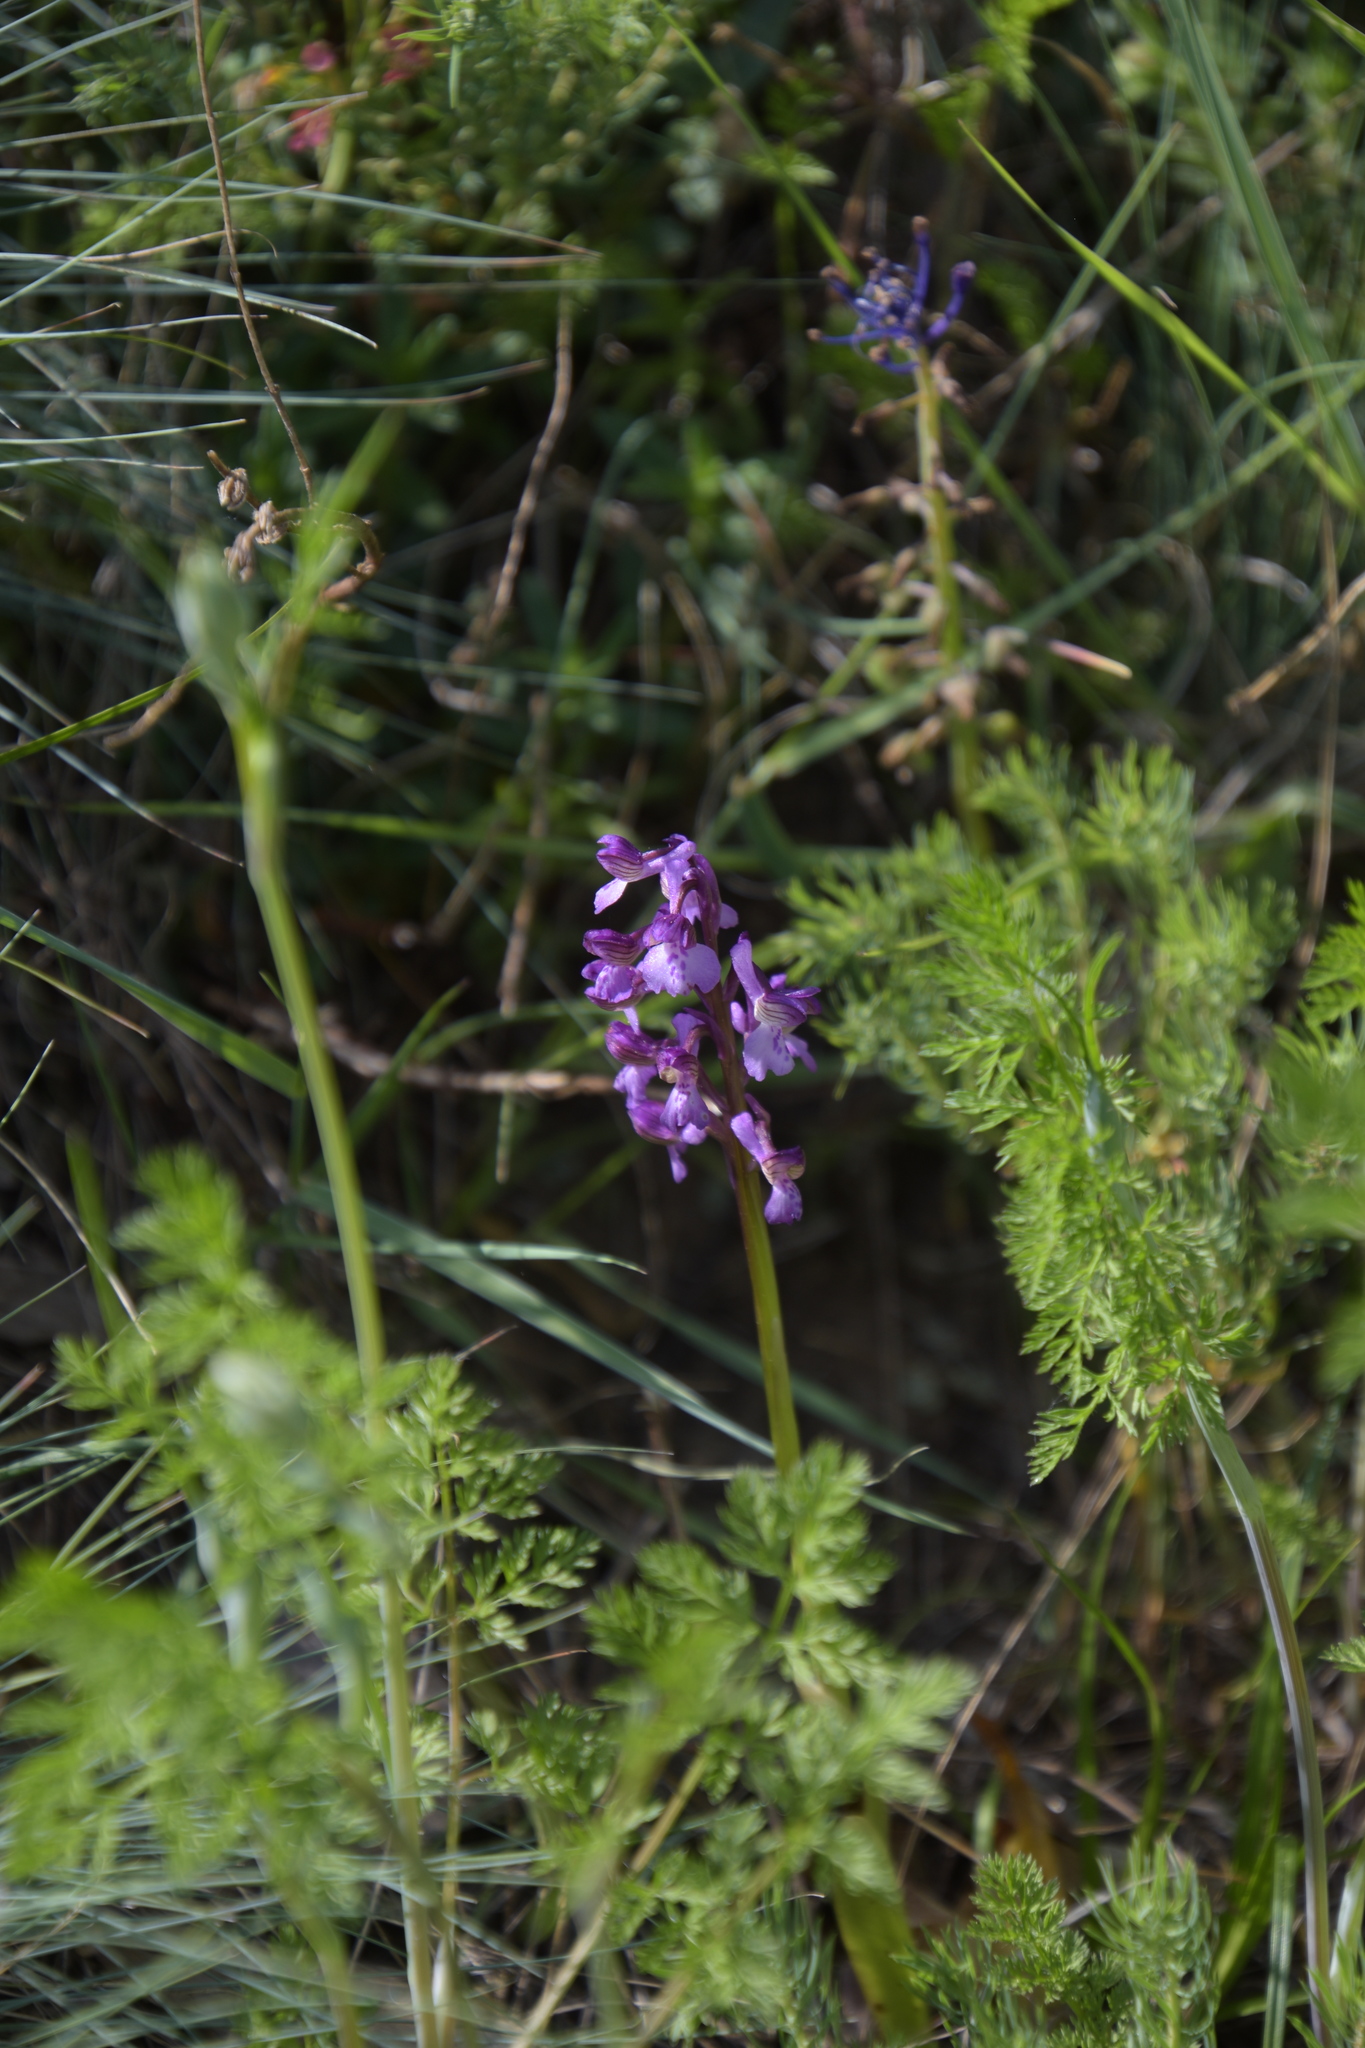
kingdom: Plantae
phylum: Tracheophyta
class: Liliopsida
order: Asparagales
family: Orchidaceae
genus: Anacamptis
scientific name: Anacamptis morio
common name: Green-winged orchid
